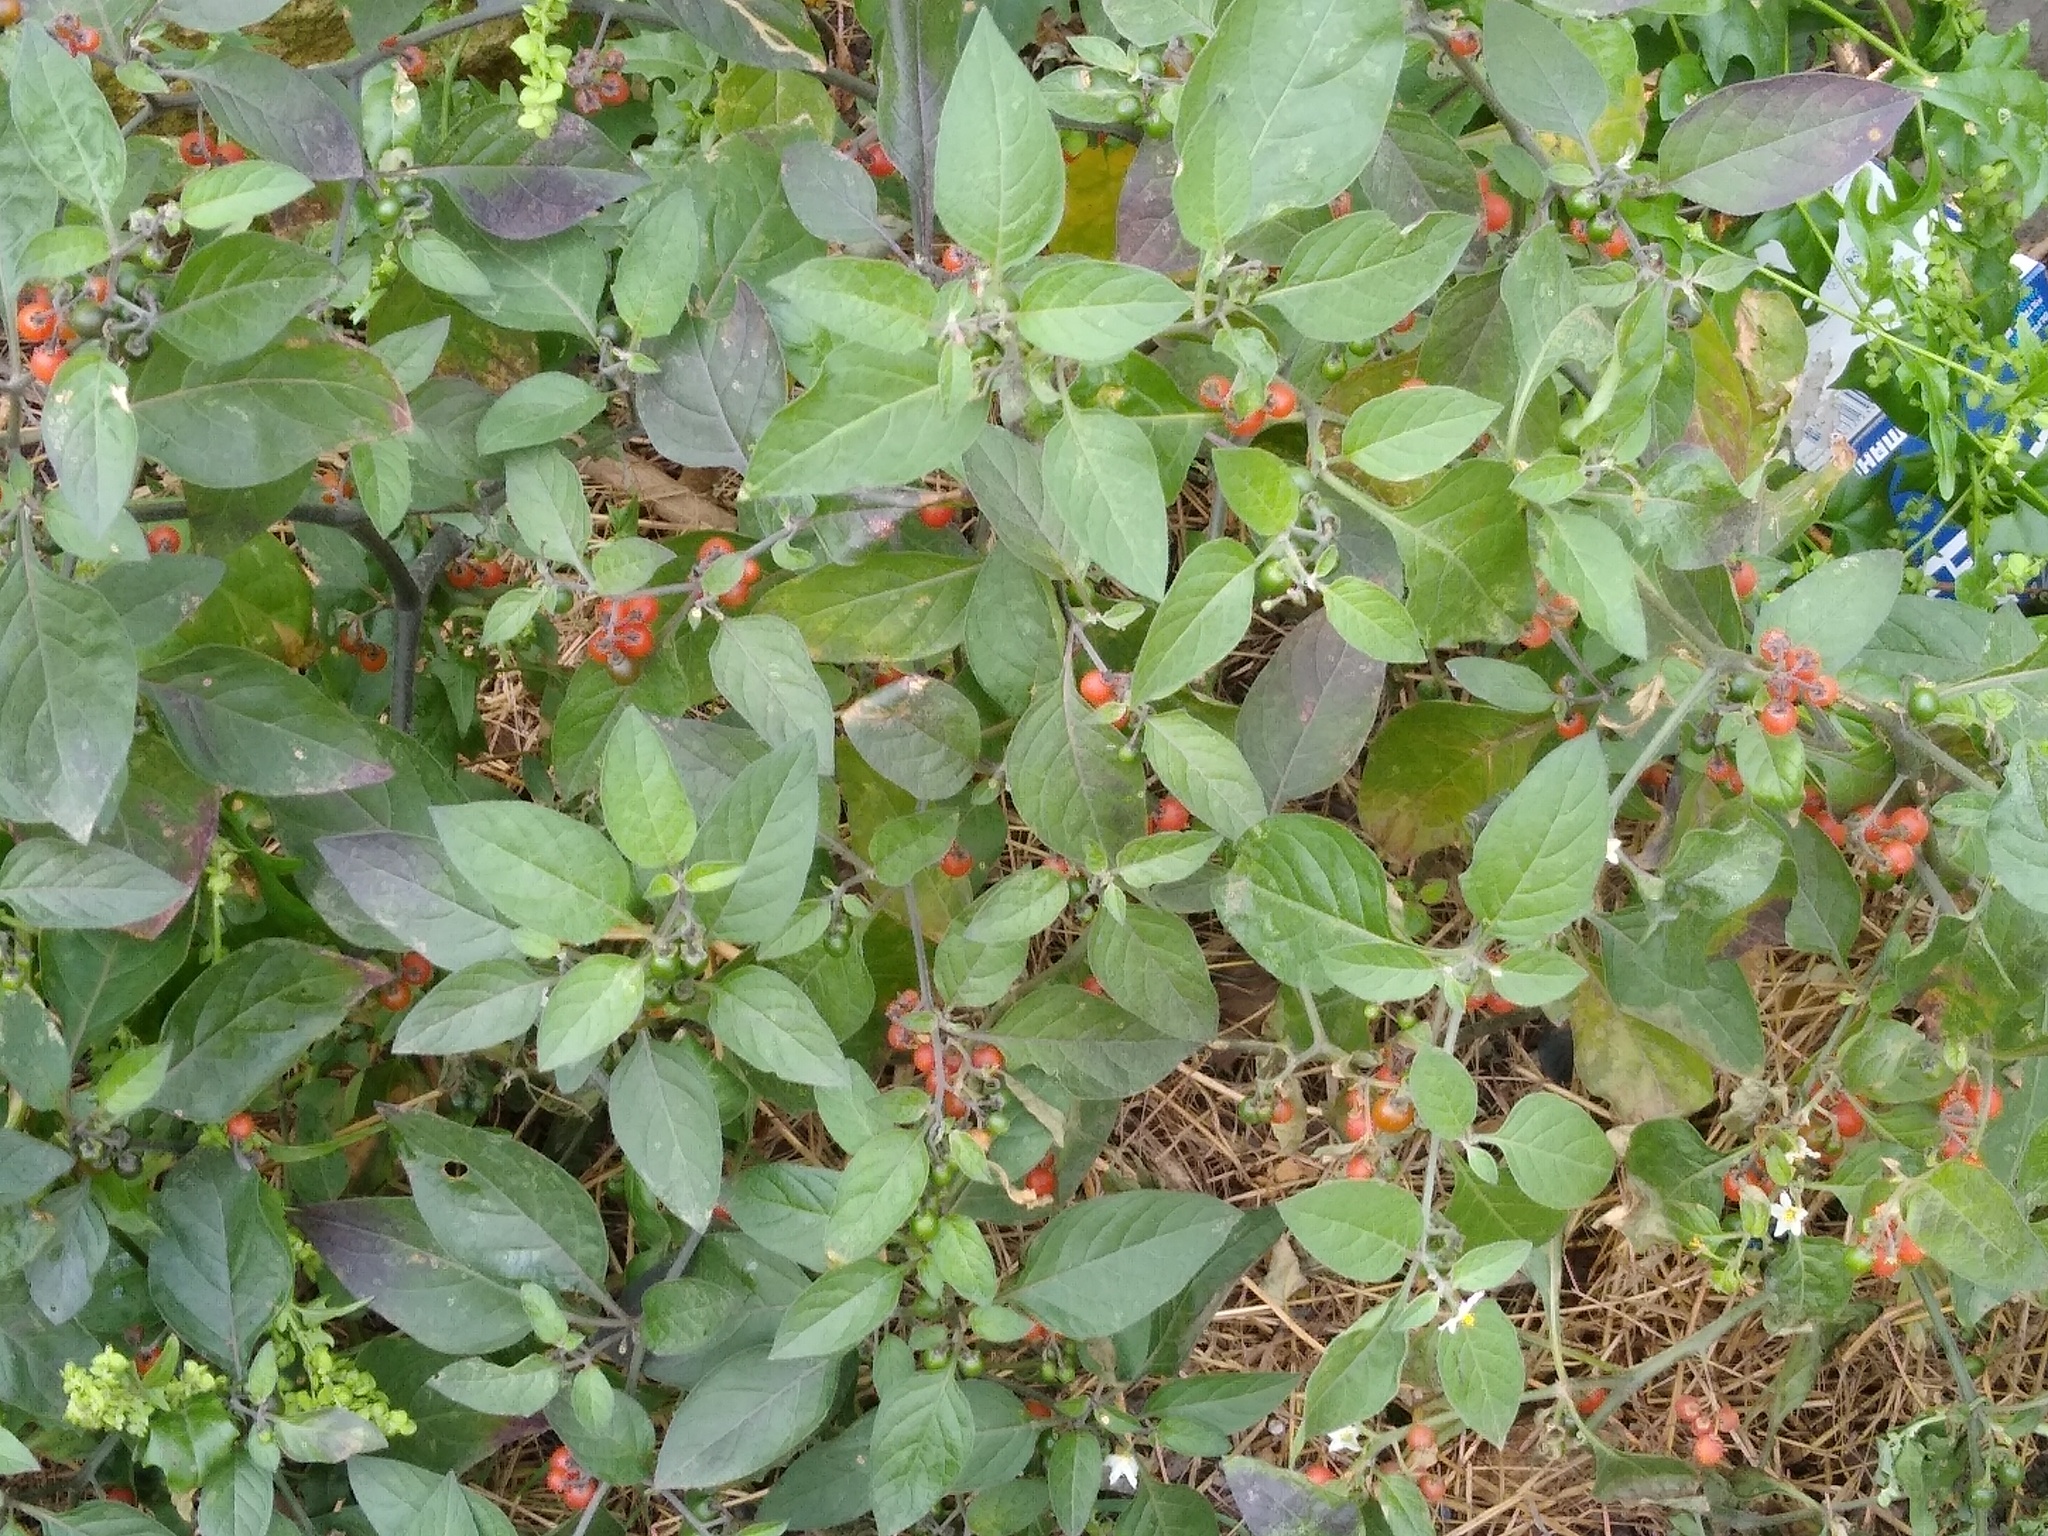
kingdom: Plantae
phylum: Tracheophyta
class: Magnoliopsida
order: Solanales
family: Solanaceae
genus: Solanum
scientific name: Solanum villosum
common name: Red nightshade
